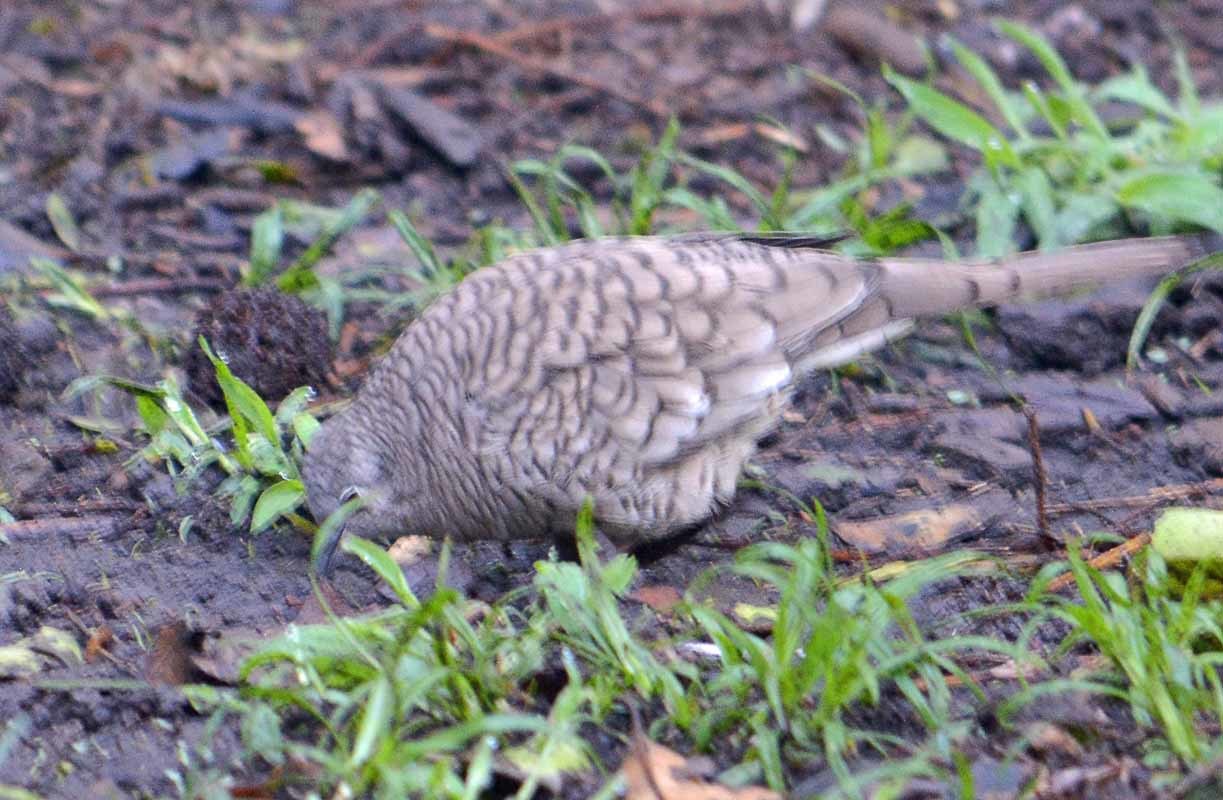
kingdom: Animalia
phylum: Chordata
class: Aves
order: Columbiformes
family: Columbidae
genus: Columbina
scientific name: Columbina inca
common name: Inca dove
